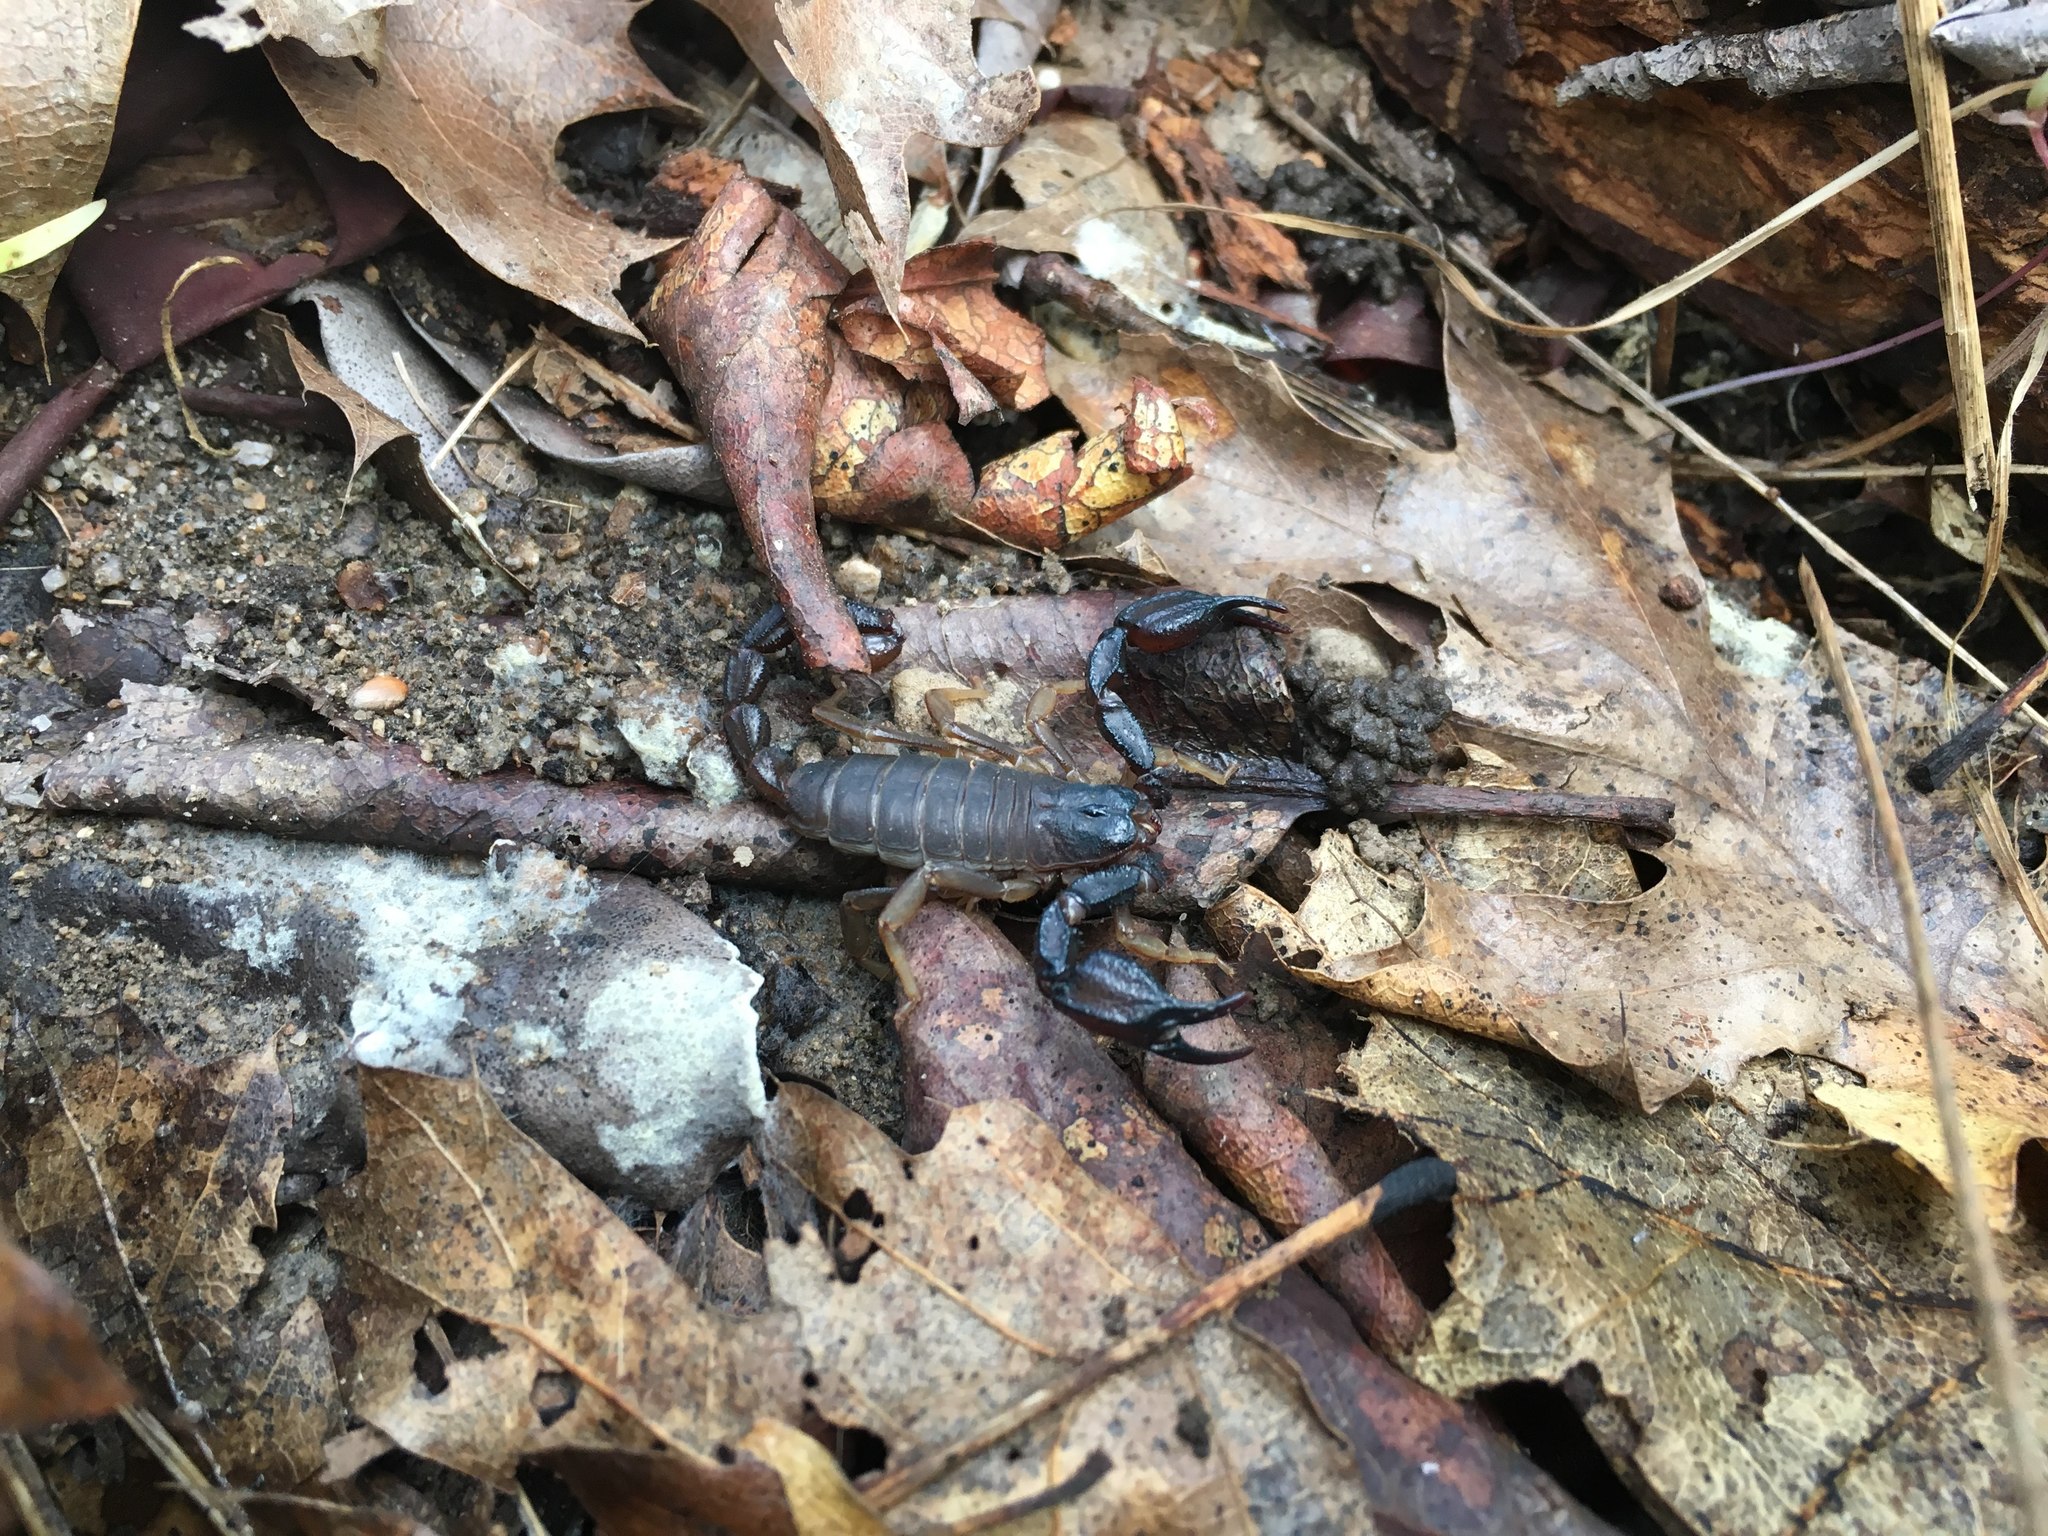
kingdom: Animalia
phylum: Arthropoda
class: Arachnida
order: Scorpiones
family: Chactidae
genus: Uroctonus
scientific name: Uroctonus mordax
